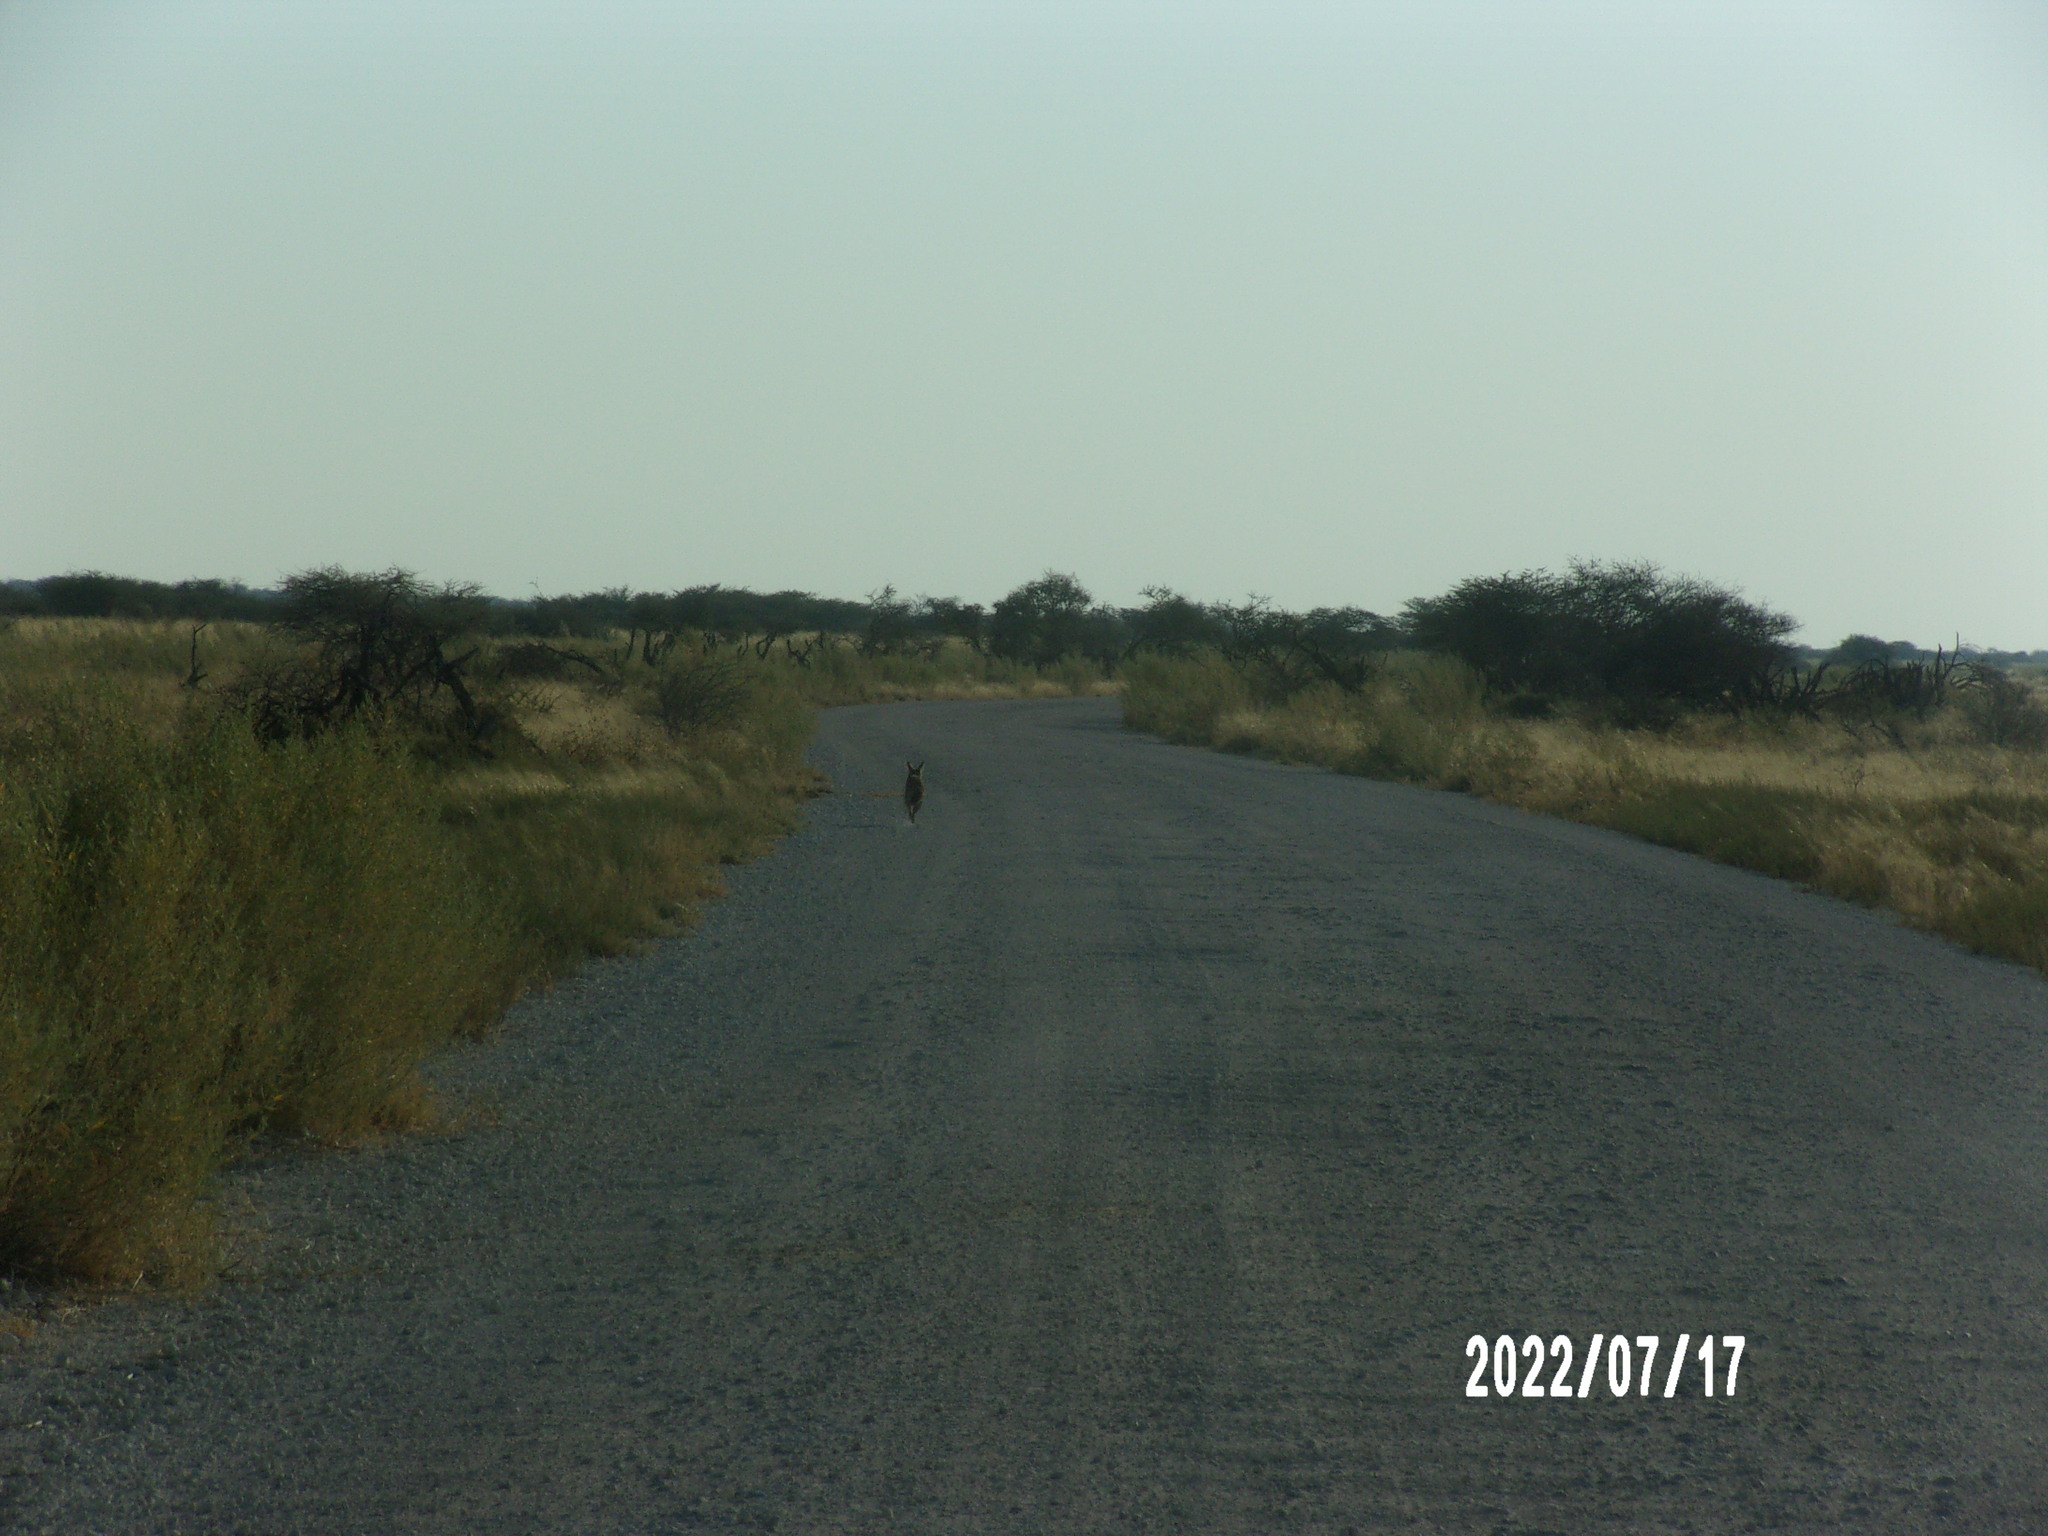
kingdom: Animalia
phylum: Chordata
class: Mammalia
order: Carnivora
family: Canidae
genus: Otocyon
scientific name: Otocyon megalotis
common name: Bat-eared fox
